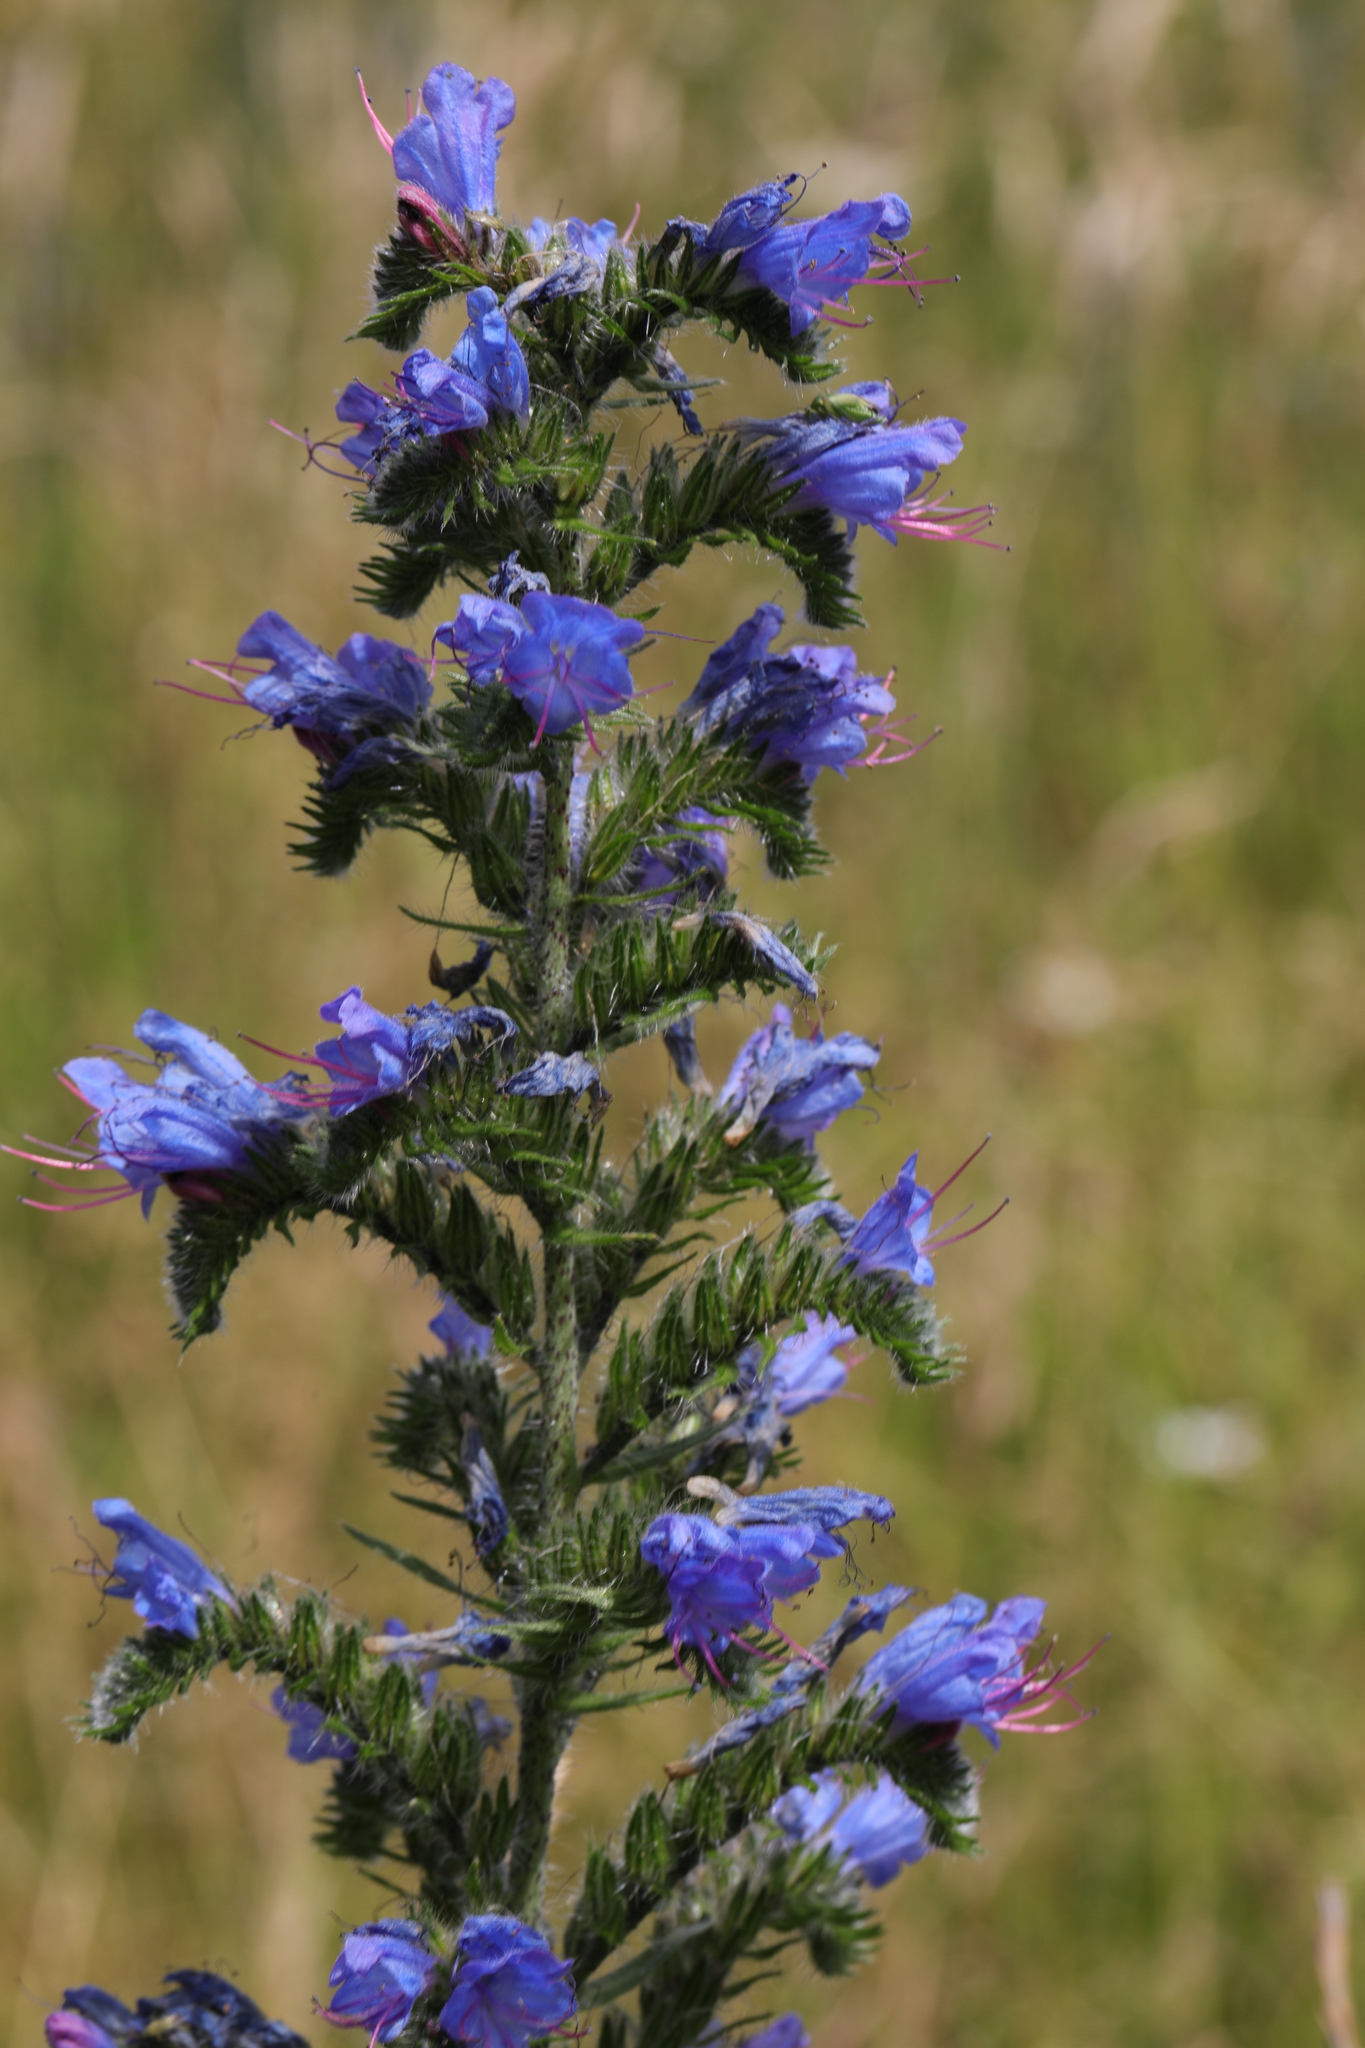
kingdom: Plantae
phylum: Tracheophyta
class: Magnoliopsida
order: Boraginales
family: Boraginaceae
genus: Echium
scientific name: Echium vulgare
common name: Common viper's bugloss
